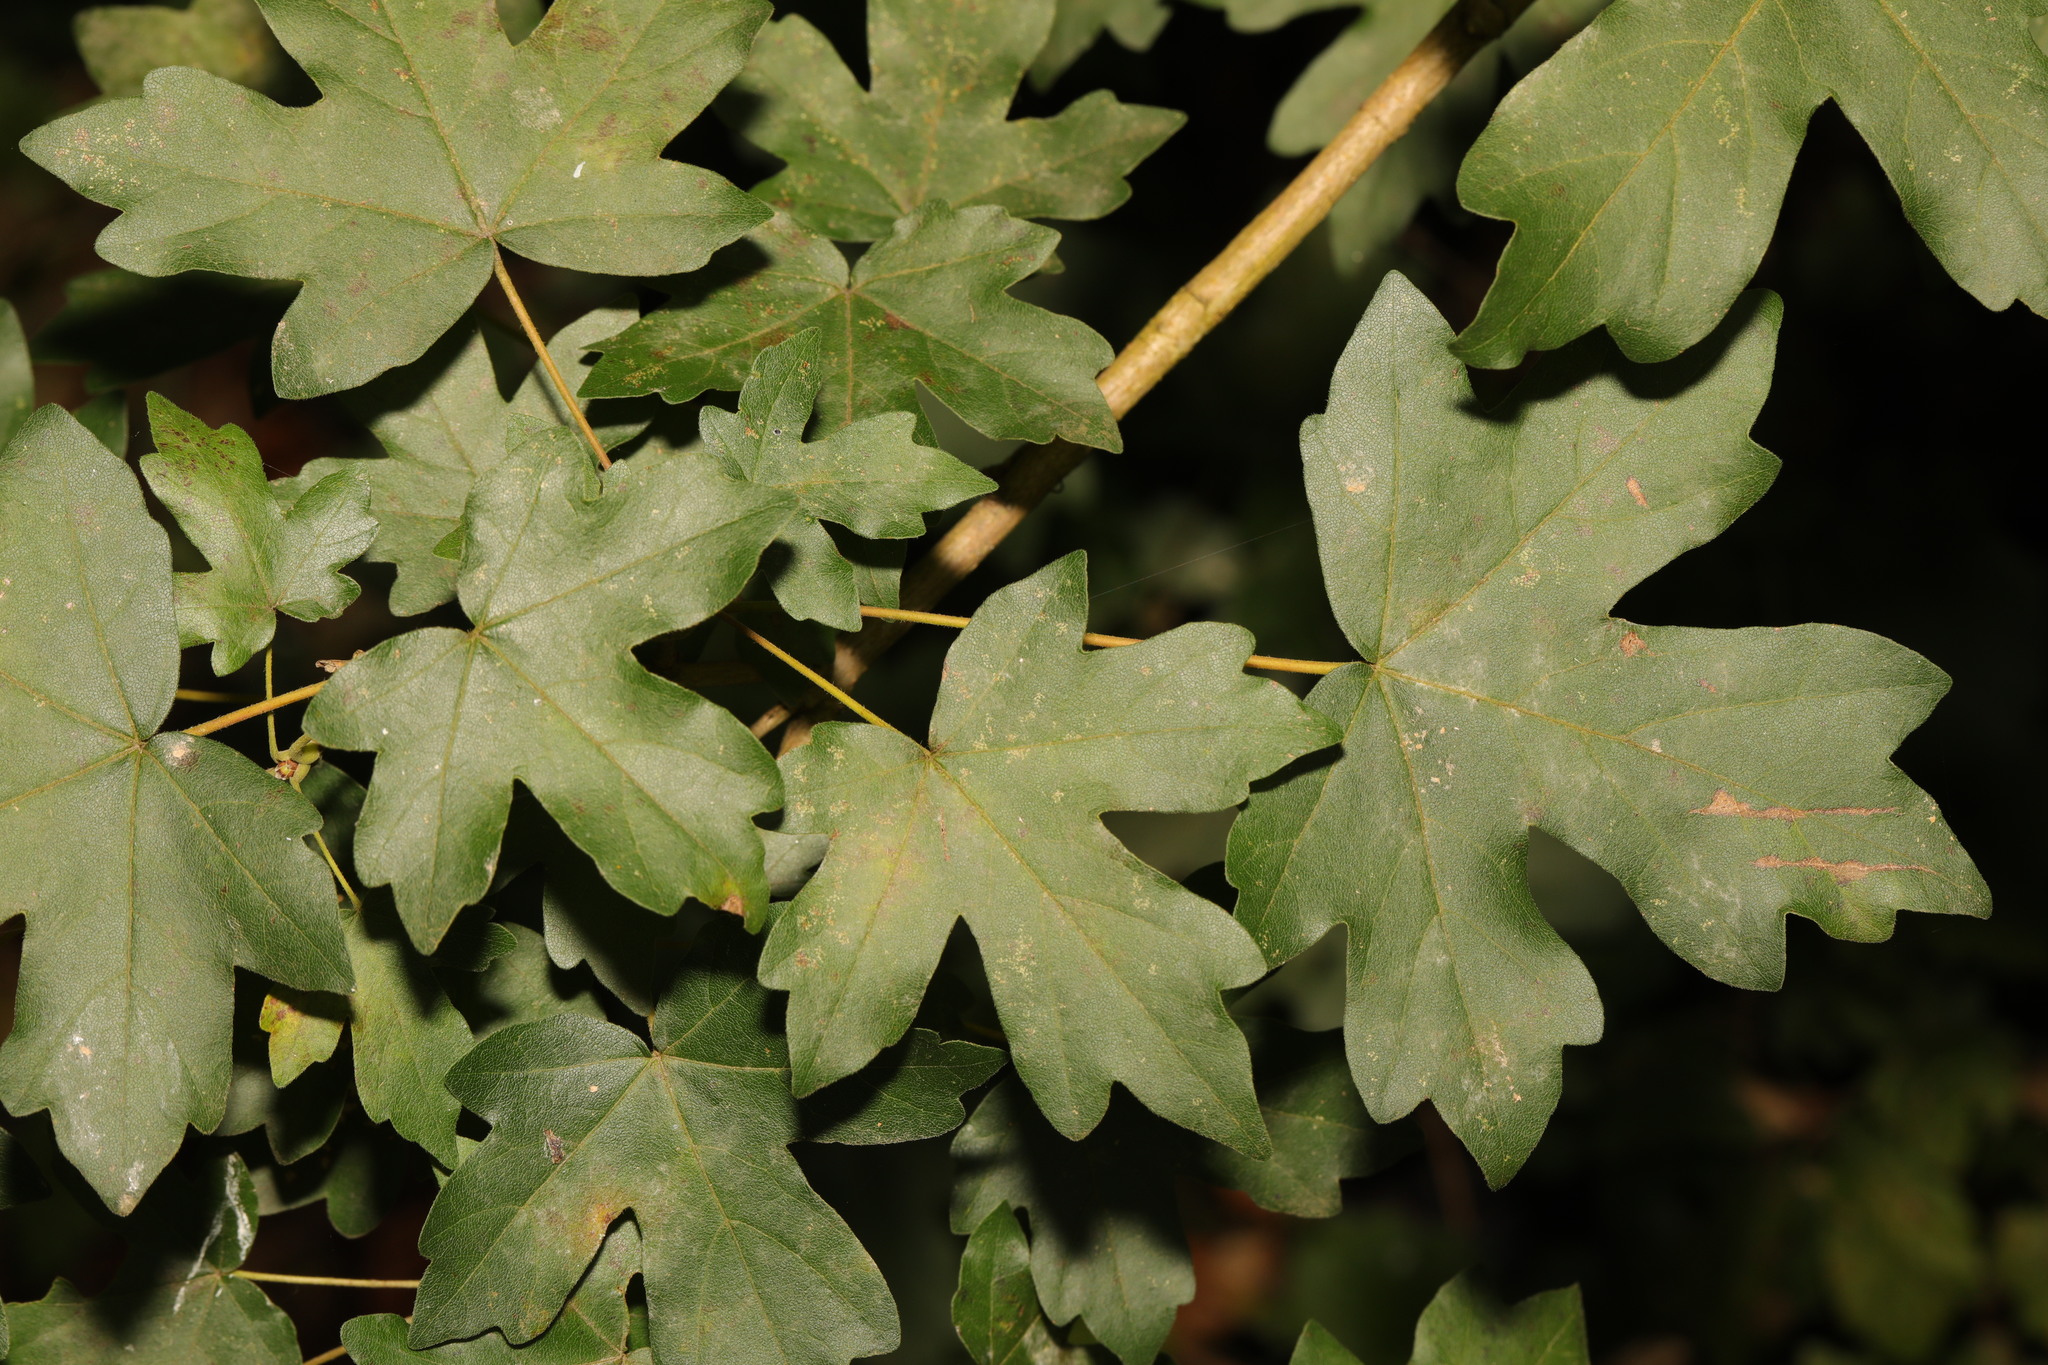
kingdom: Plantae
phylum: Tracheophyta
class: Magnoliopsida
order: Sapindales
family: Sapindaceae
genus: Acer
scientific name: Acer campestre
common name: Field maple
